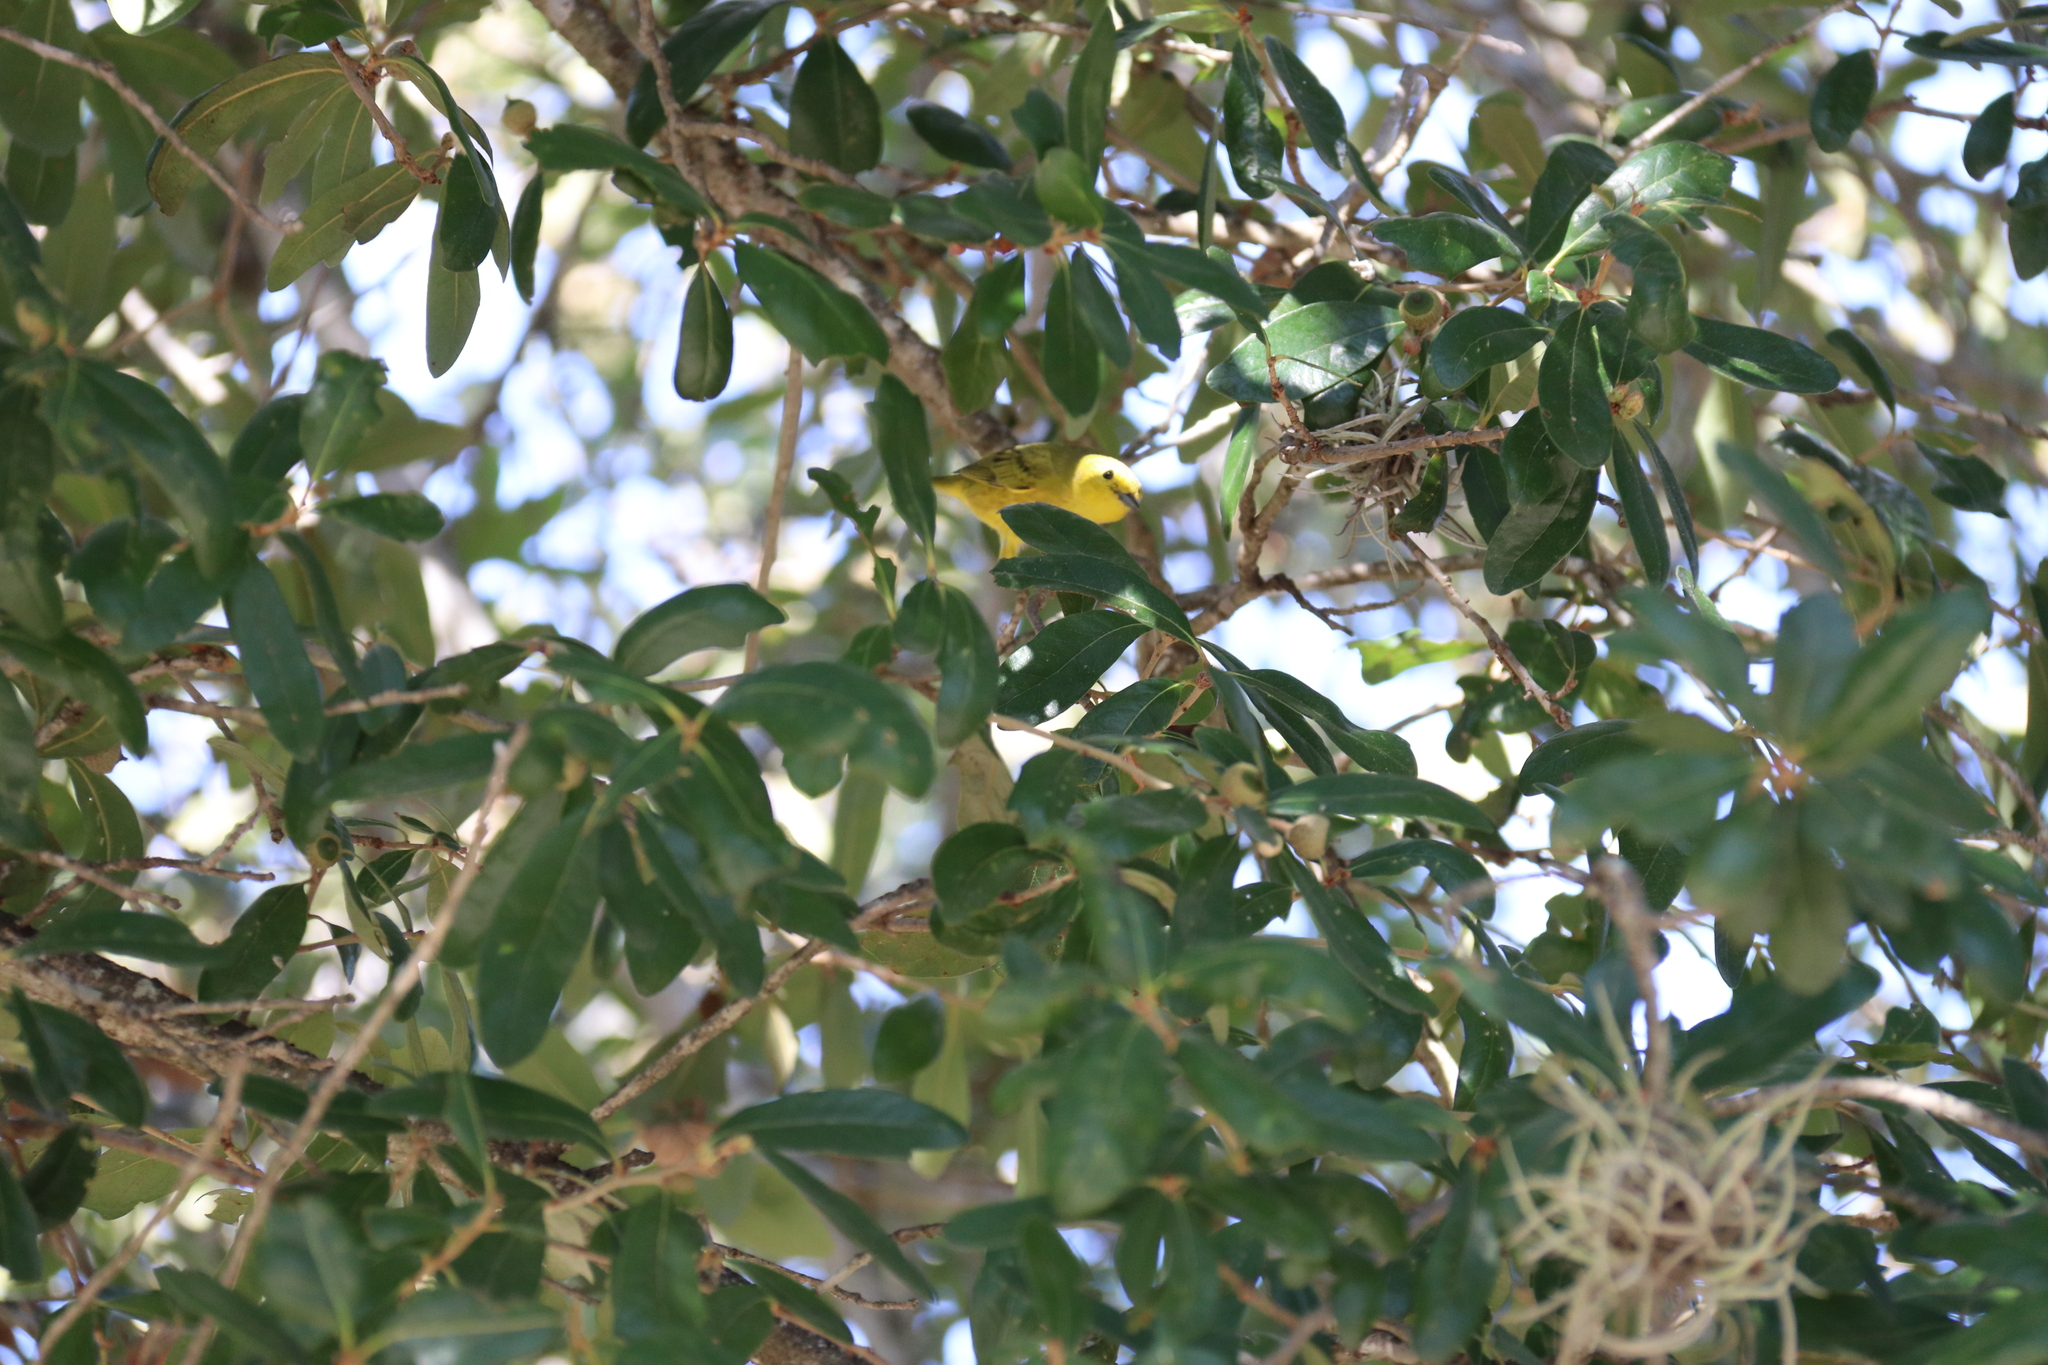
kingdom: Animalia
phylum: Chordata
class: Aves
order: Passeriformes
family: Parulidae
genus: Setophaga
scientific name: Setophaga petechia
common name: Yellow warbler
